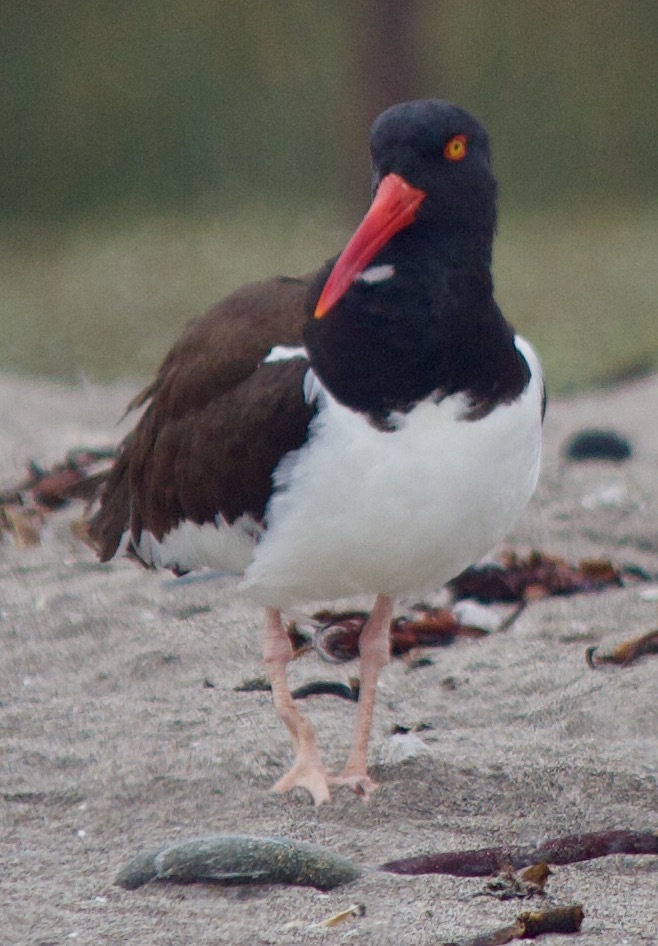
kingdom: Animalia
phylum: Chordata
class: Aves
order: Charadriiformes
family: Haematopodidae
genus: Haematopus
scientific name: Haematopus palliatus
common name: American oystercatcher
